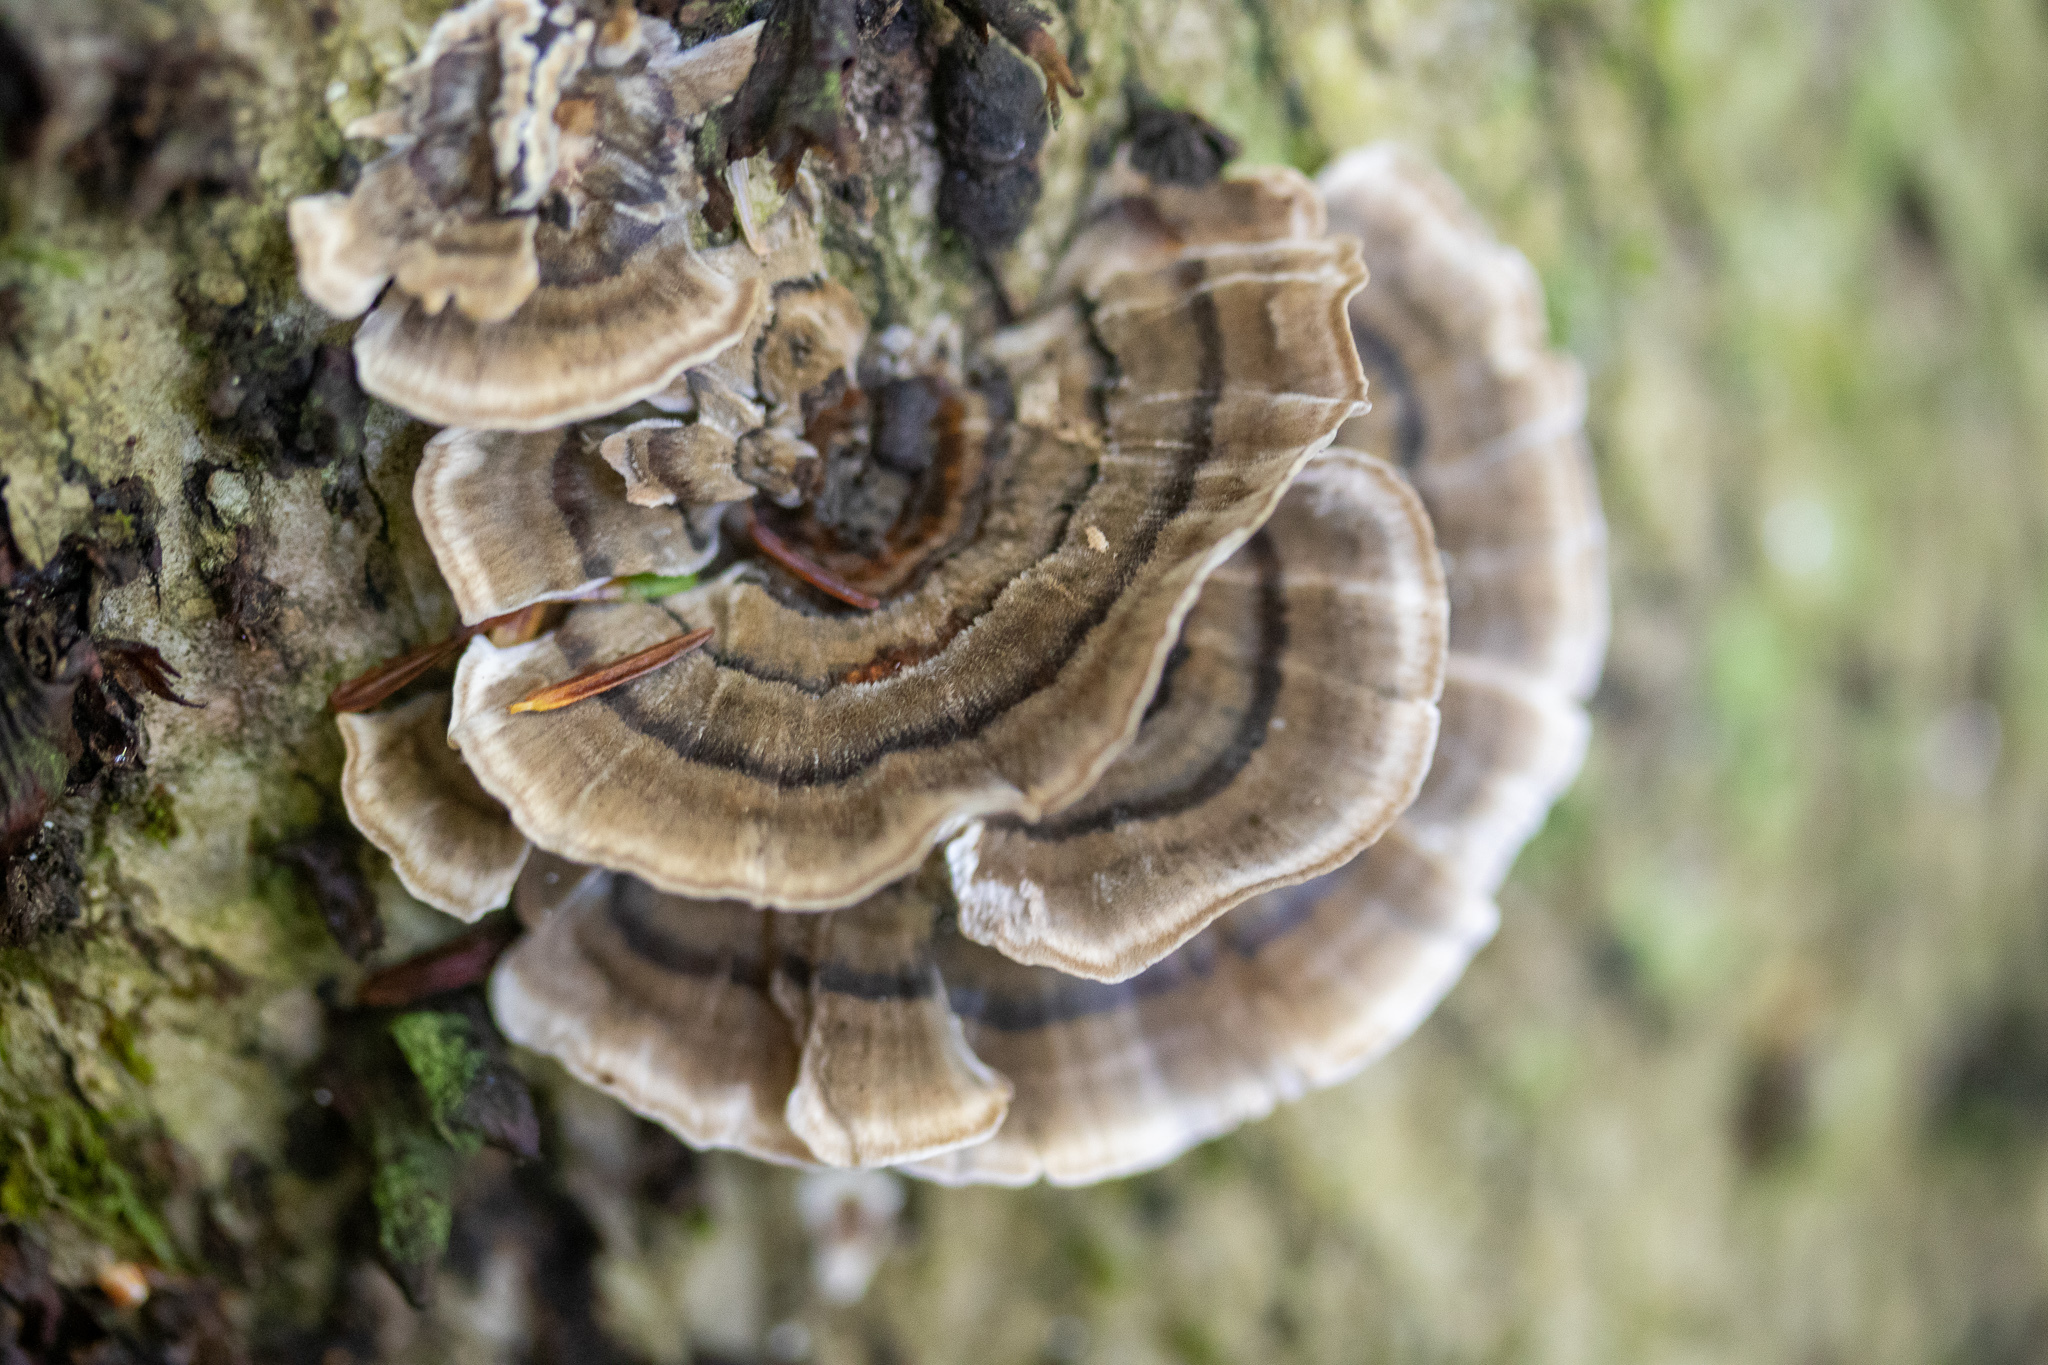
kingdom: Fungi
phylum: Basidiomycota
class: Agaricomycetes
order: Polyporales
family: Polyporaceae
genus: Trametes
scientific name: Trametes versicolor
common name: Turkeytail
